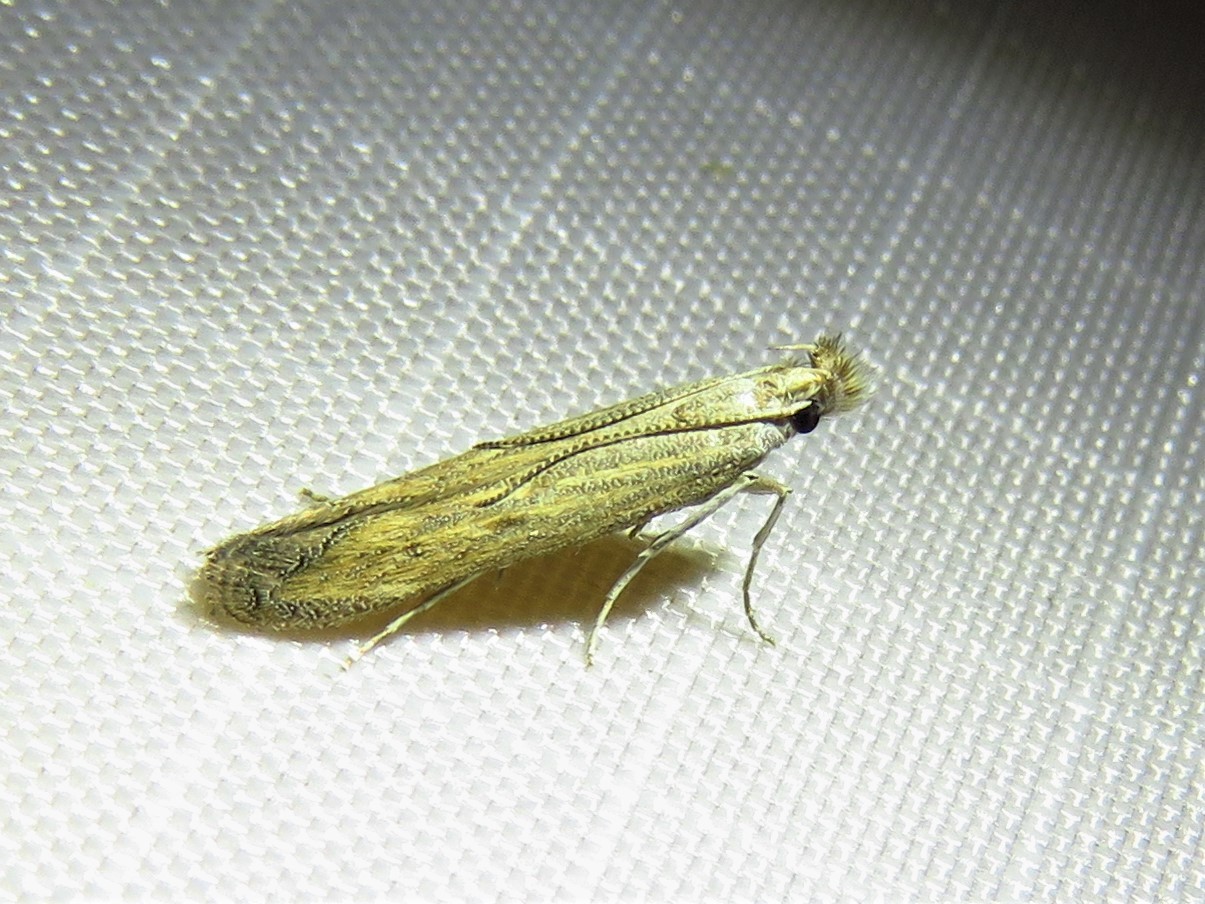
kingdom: Animalia
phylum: Arthropoda
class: Insecta
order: Lepidoptera
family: Gelechiidae
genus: Isophrictis
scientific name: Isophrictis similiella
